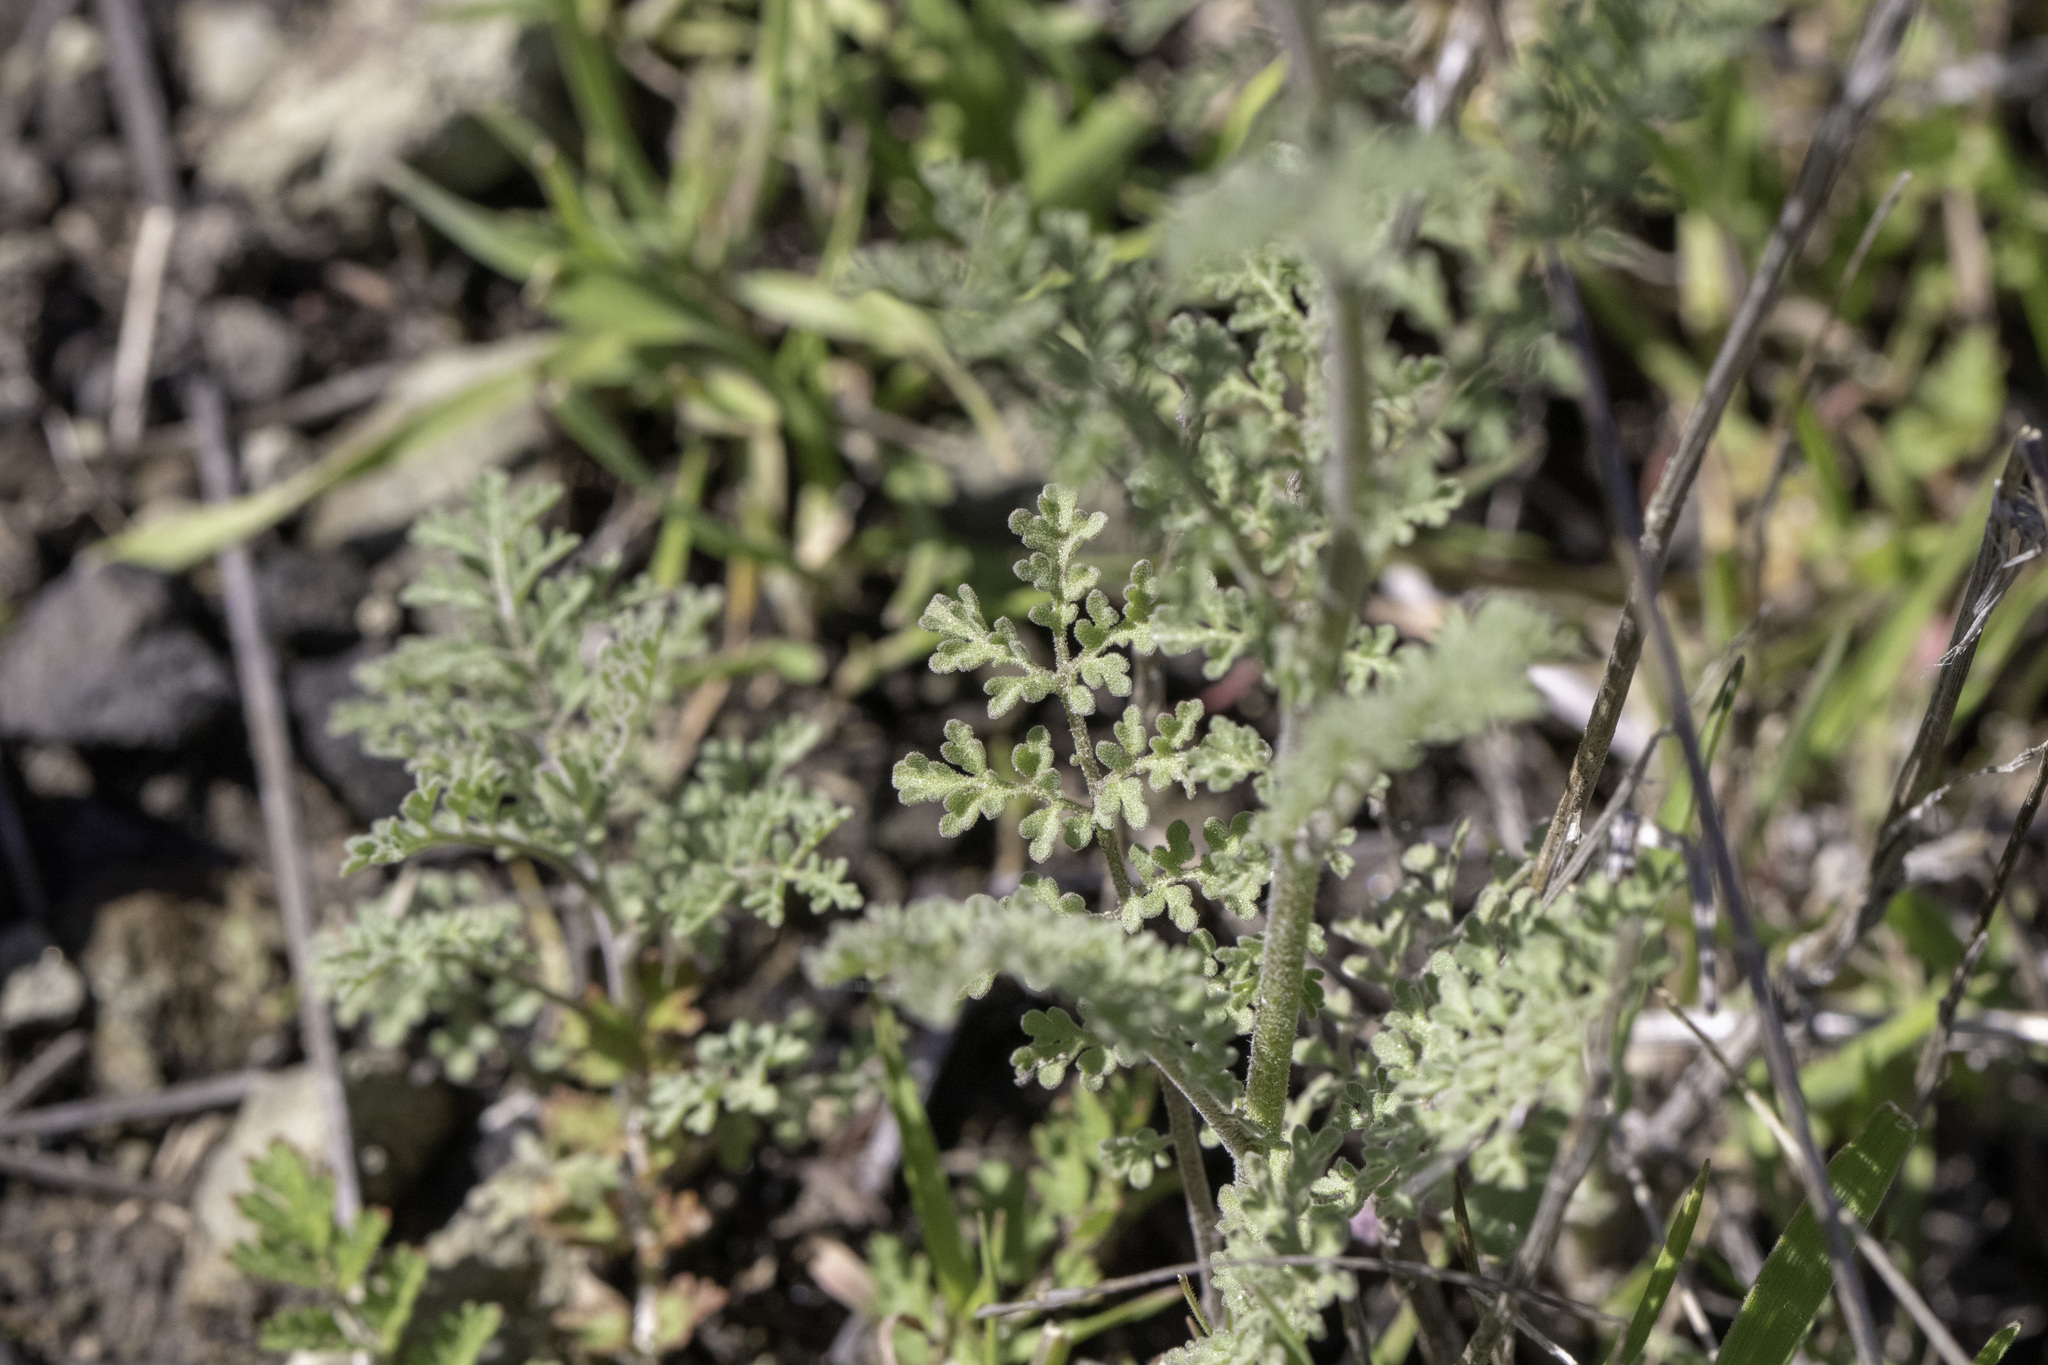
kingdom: Plantae
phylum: Tracheophyta
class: Magnoliopsida
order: Brassicales
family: Brassicaceae
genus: Descurainia
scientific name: Descurainia pinnata
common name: Western tansy mustard
